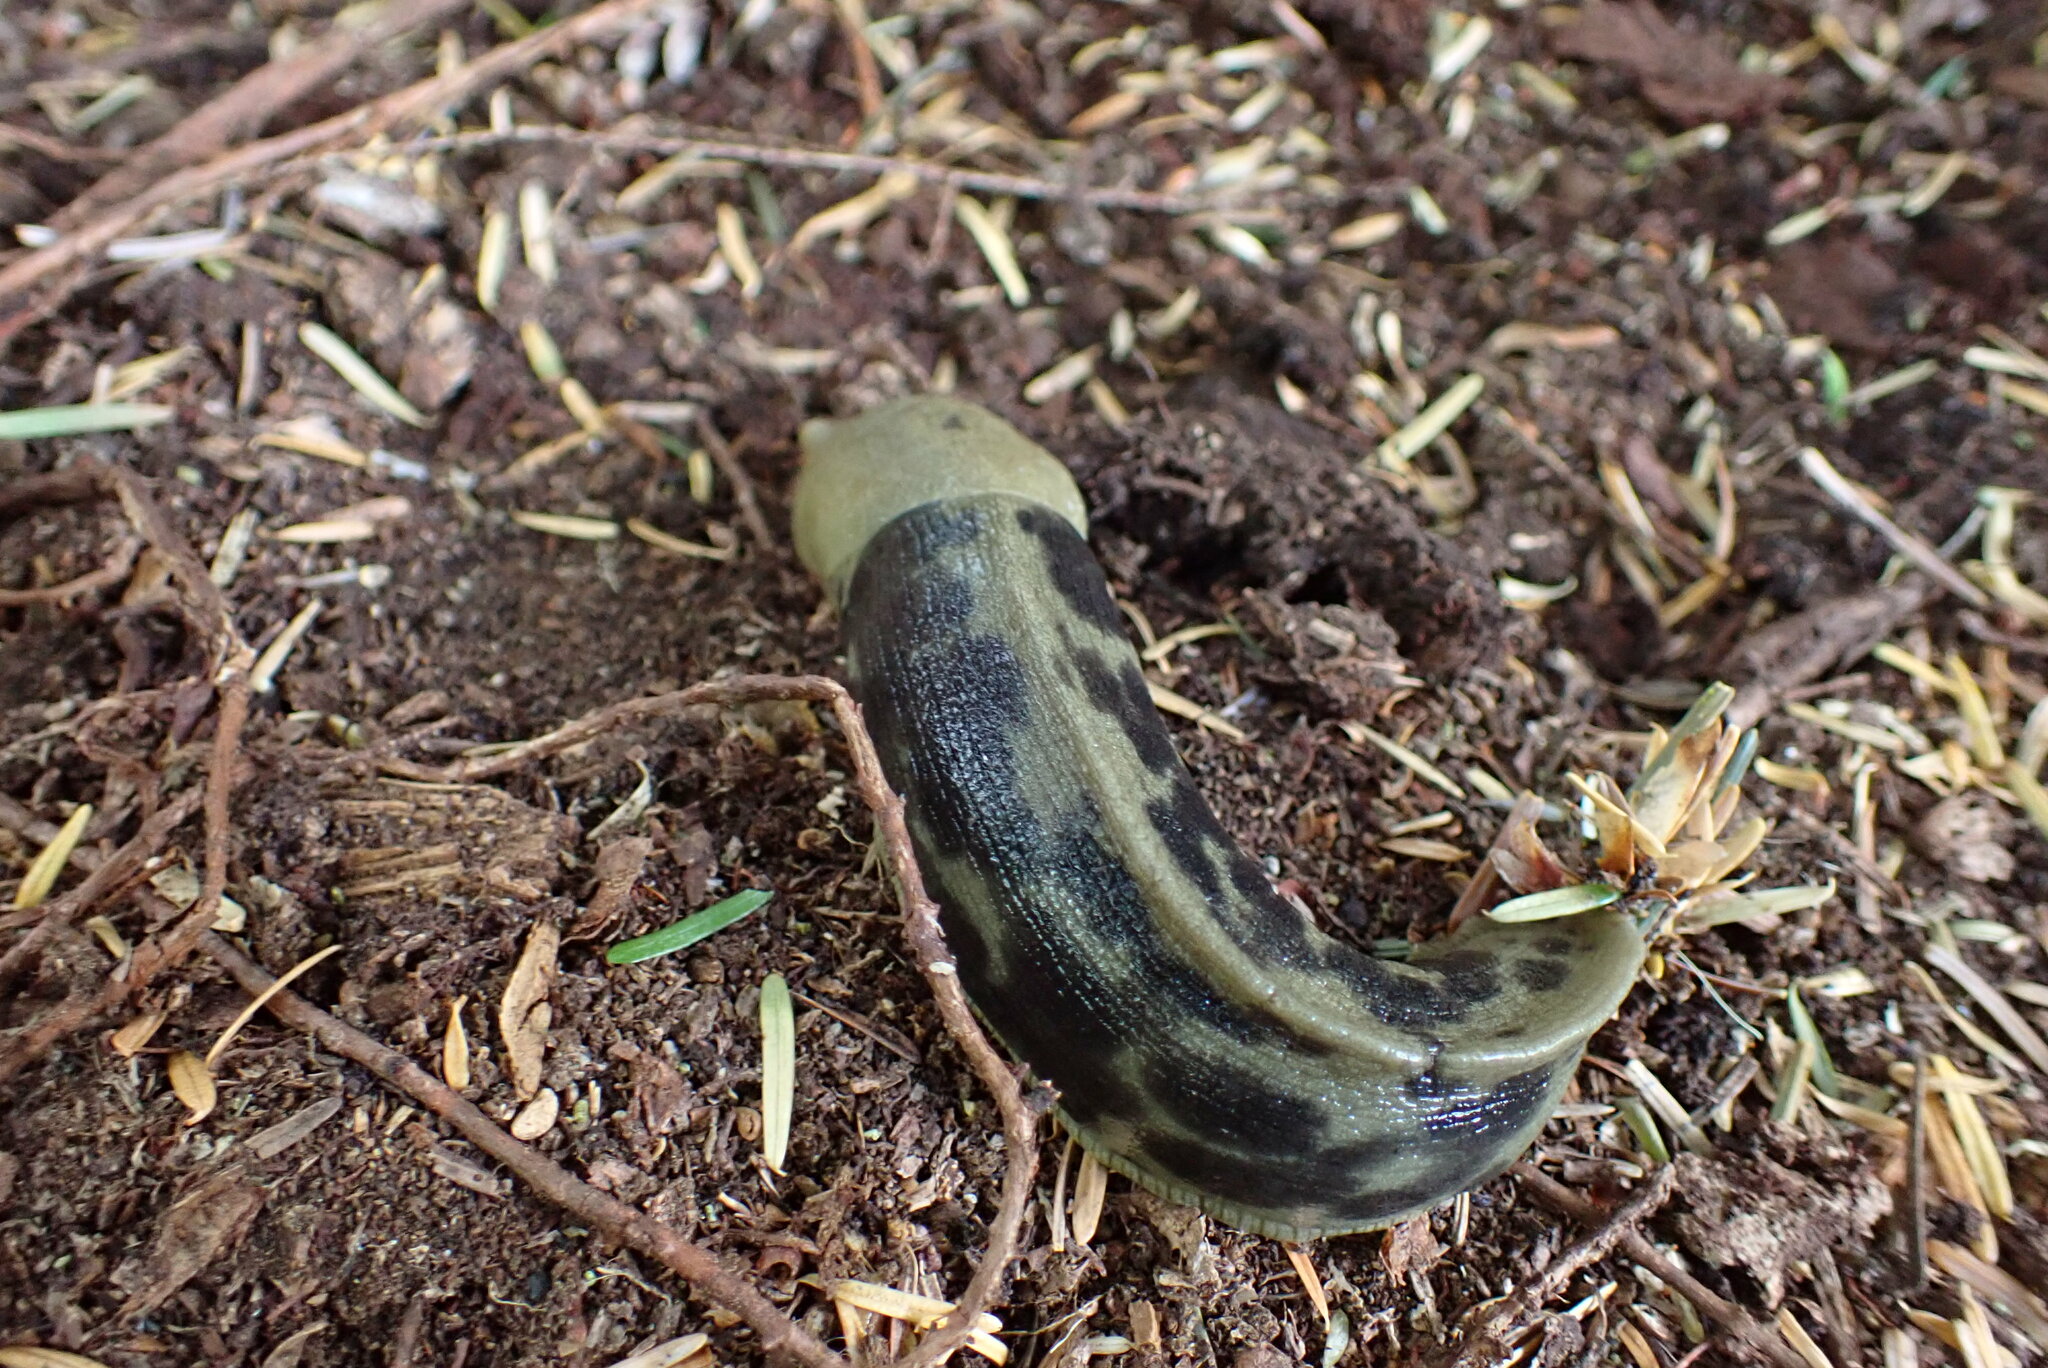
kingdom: Animalia
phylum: Mollusca
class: Gastropoda
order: Stylommatophora
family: Ariolimacidae
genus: Ariolimax
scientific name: Ariolimax columbianus
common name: Pacific banana slug
